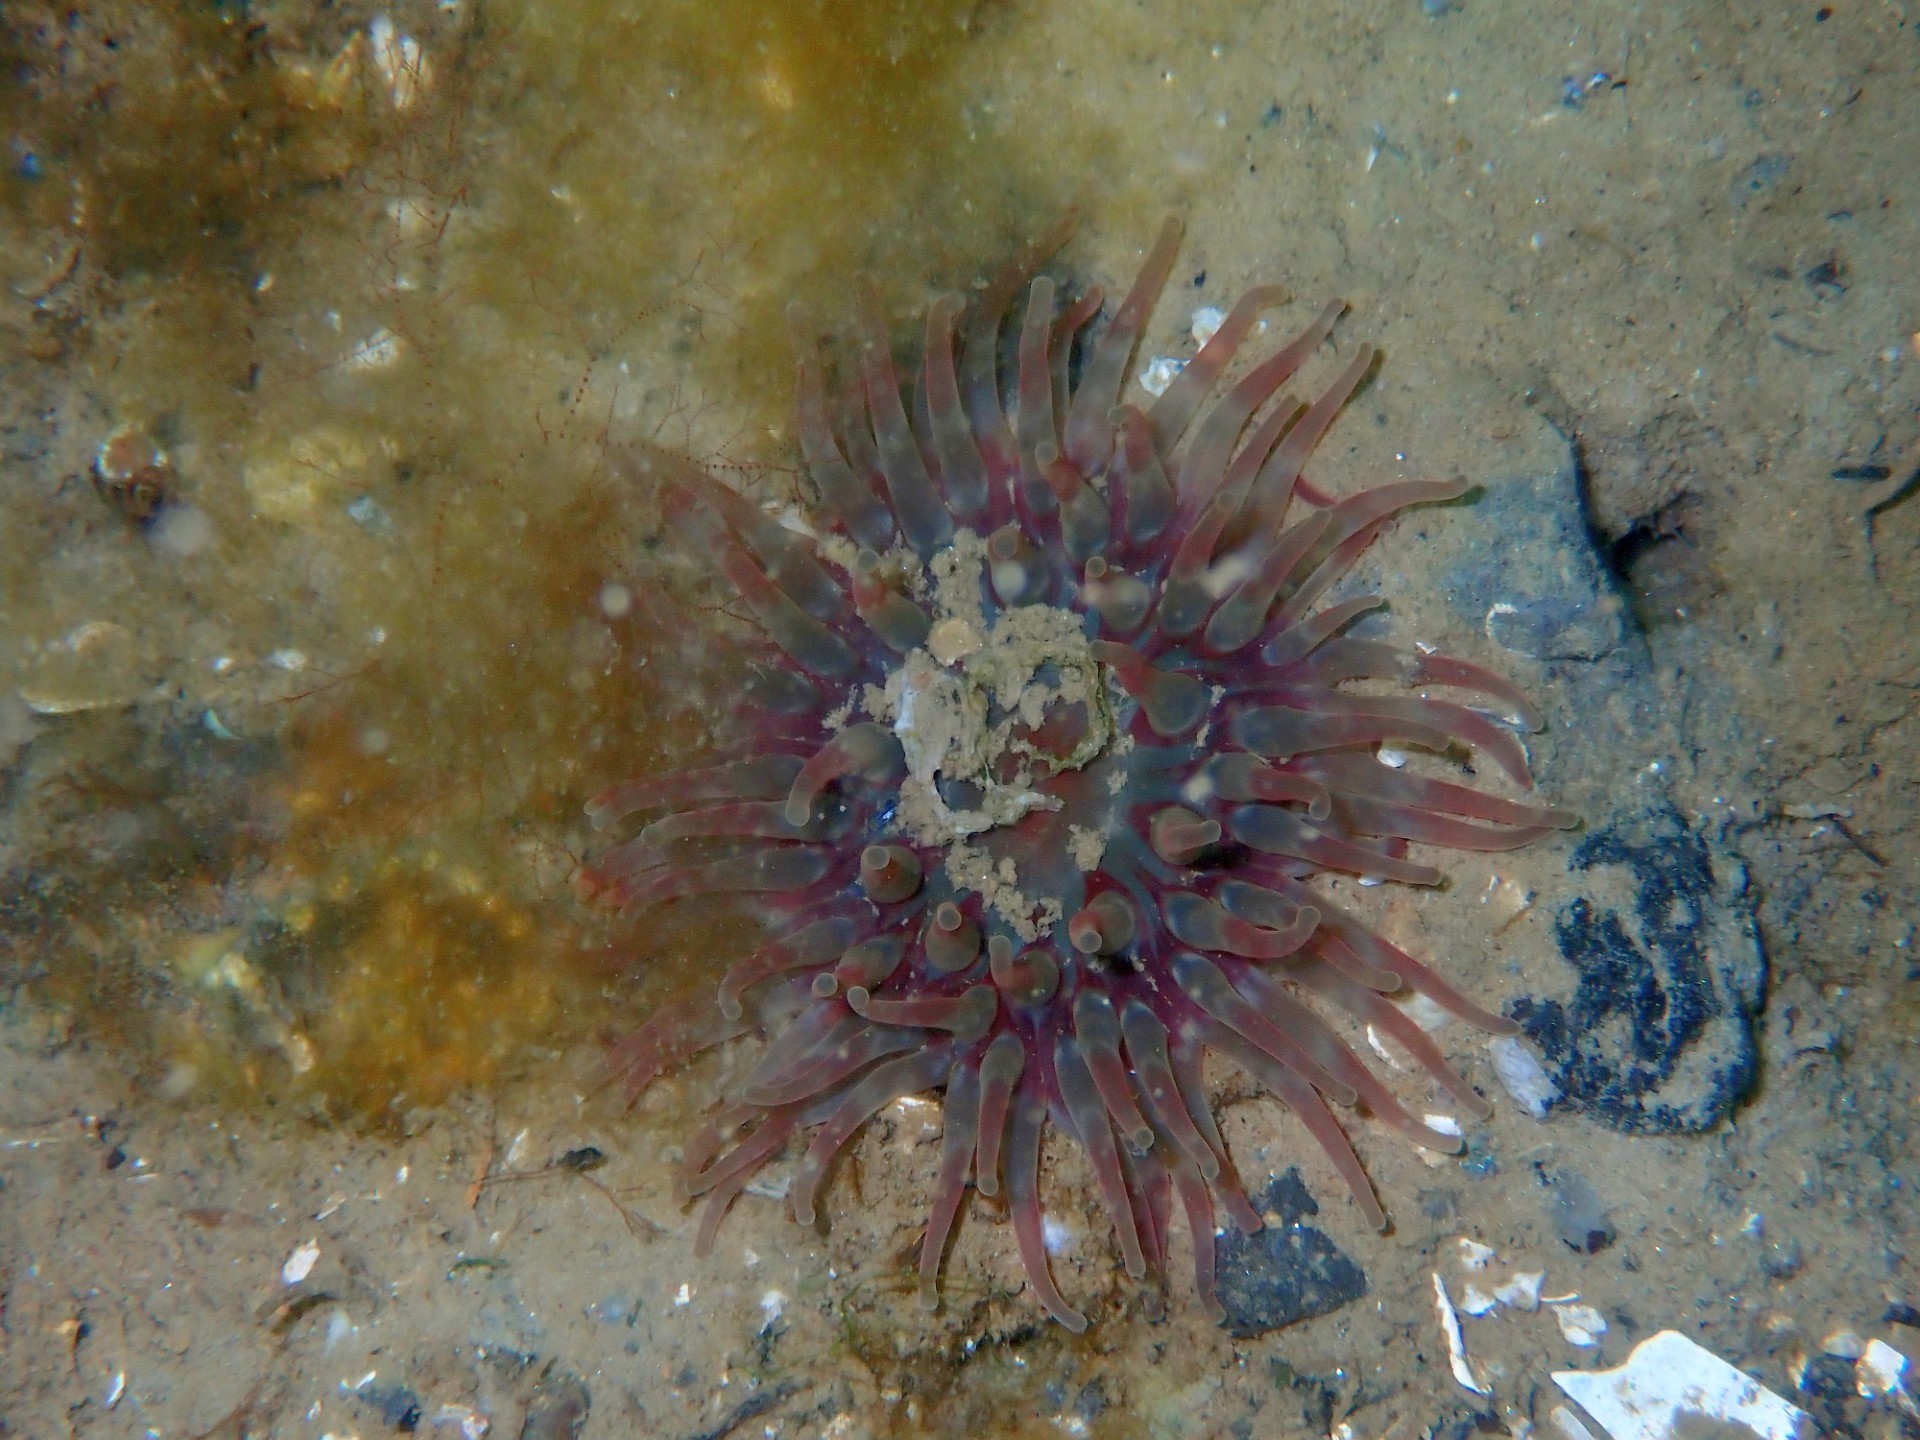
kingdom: Animalia
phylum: Cnidaria
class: Anthozoa
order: Actiniaria
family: Actiniidae
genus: Urticina
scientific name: Urticina felina
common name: Dahlia anemone
